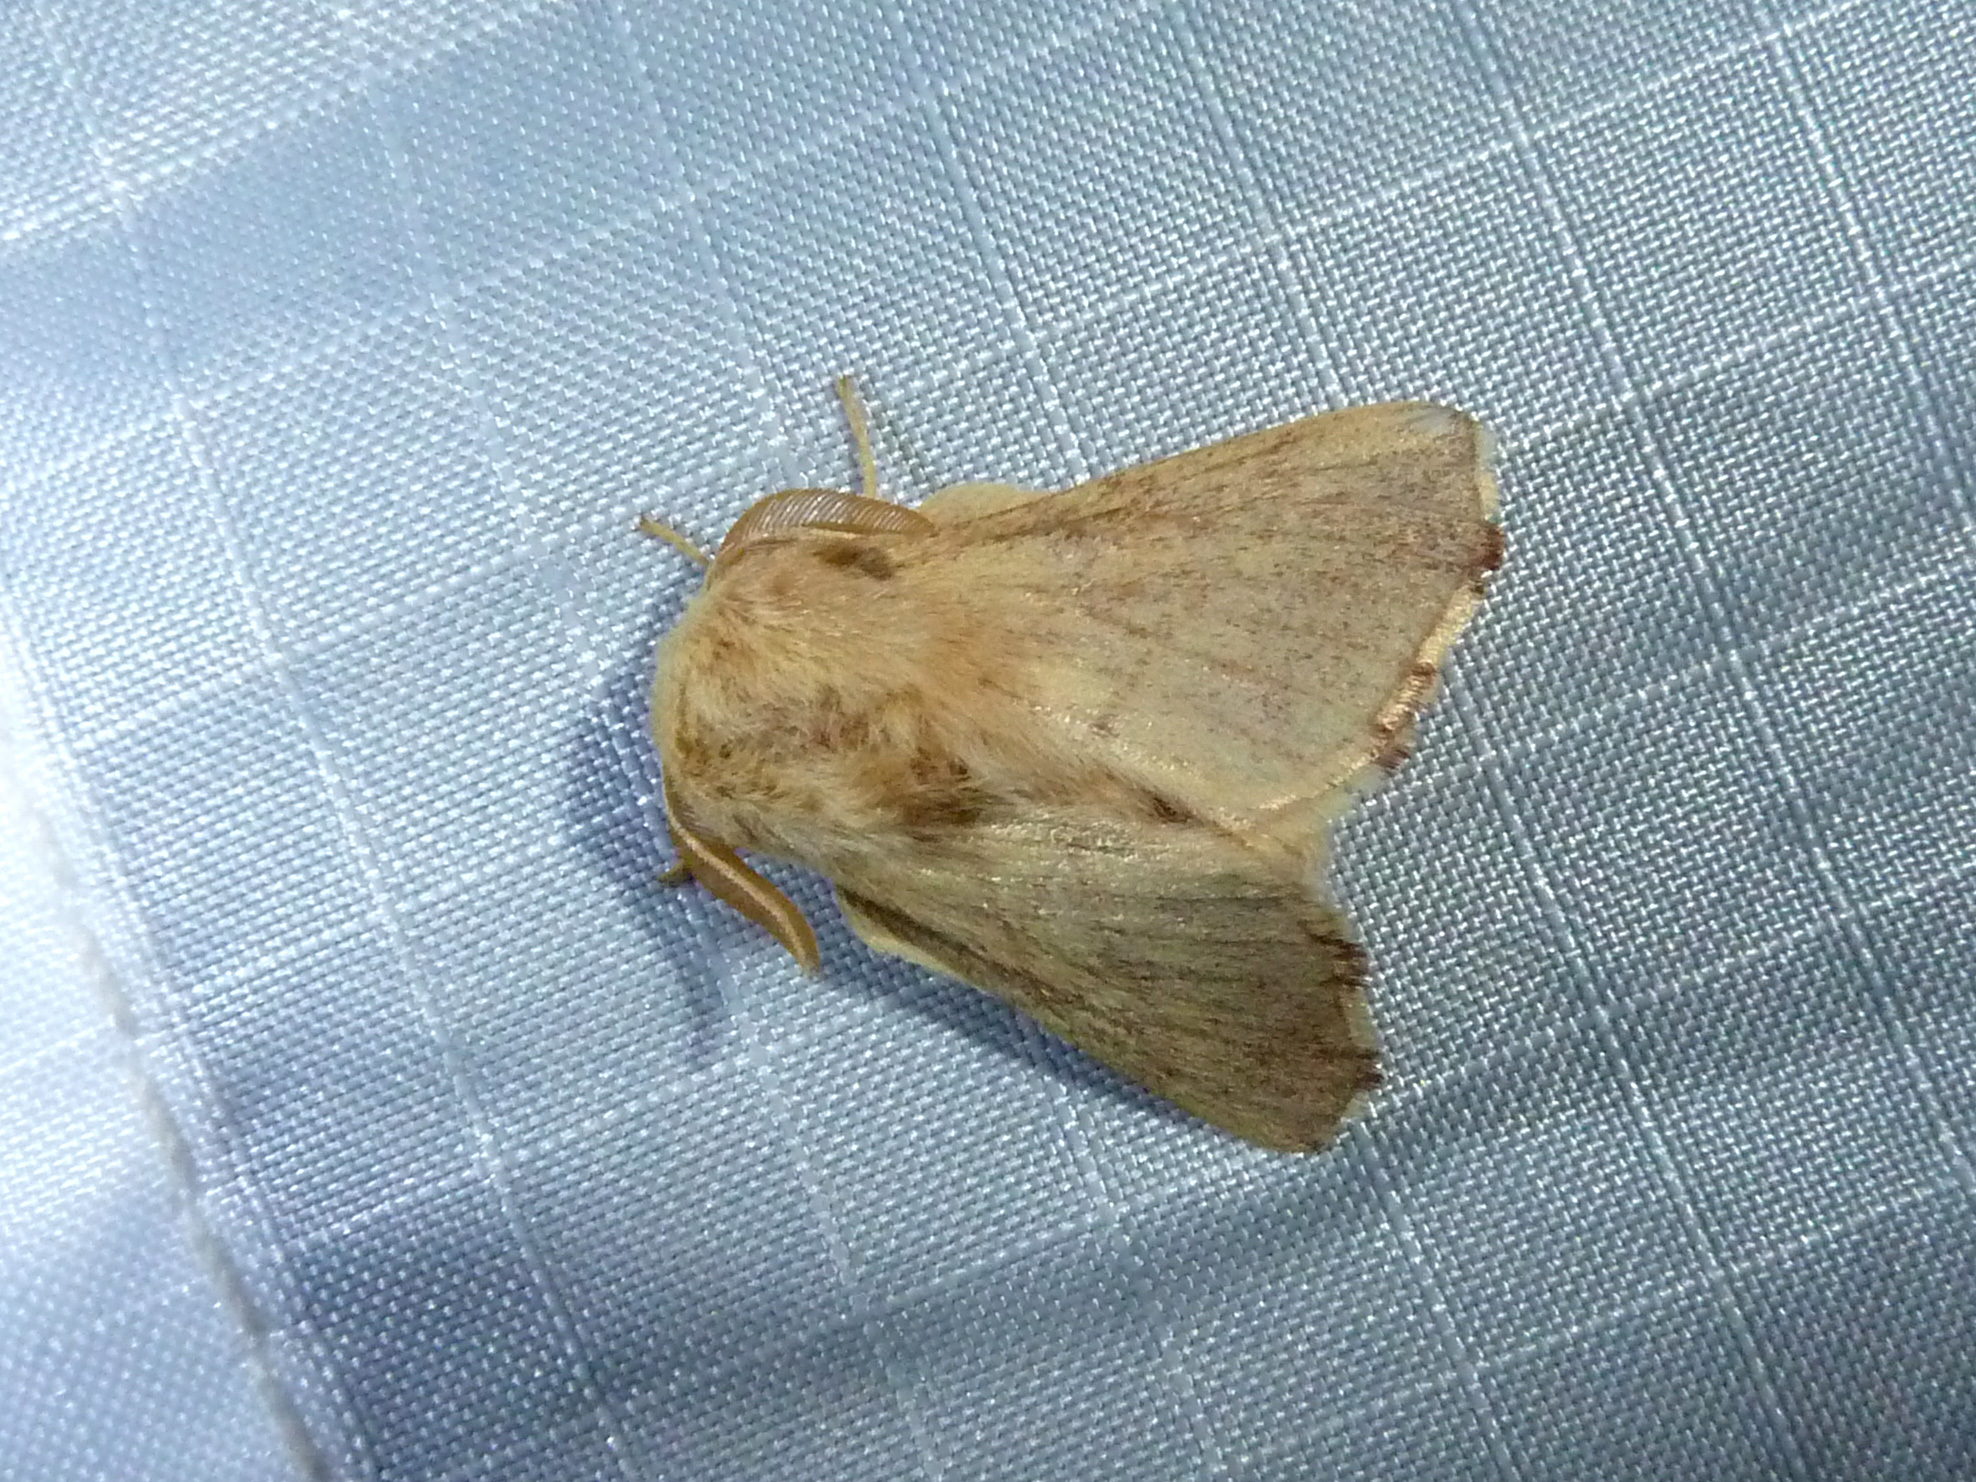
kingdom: Animalia
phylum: Arthropoda
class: Insecta
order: Lepidoptera
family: Lasiocampidae
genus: Malacosoma
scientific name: Malacosoma constricta
